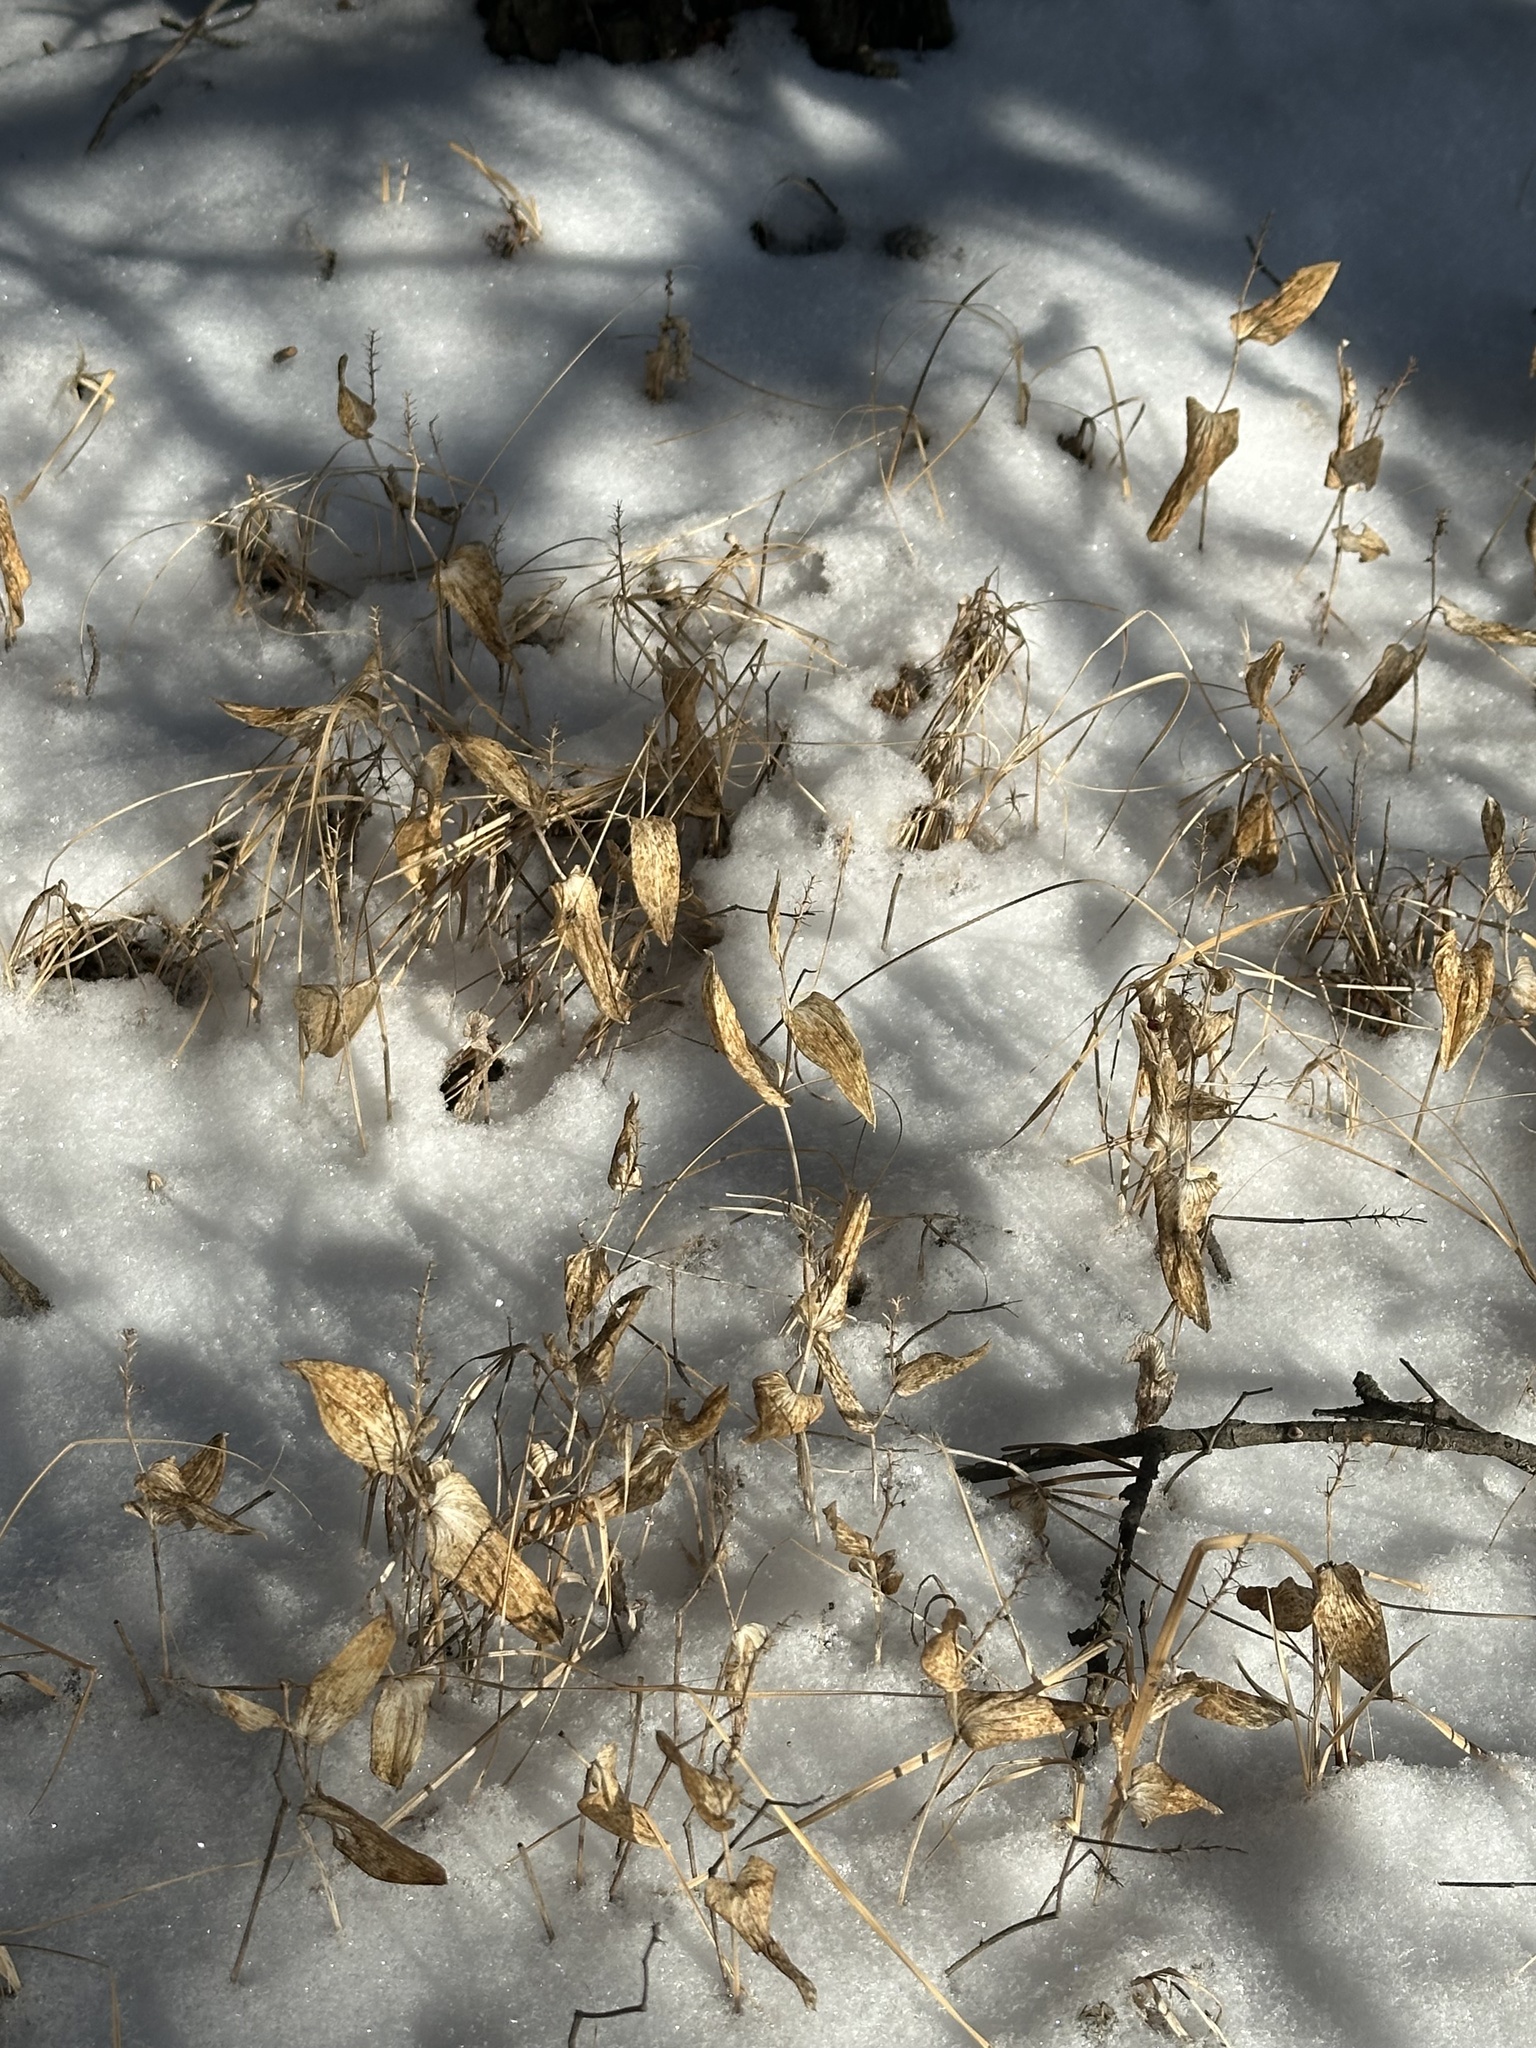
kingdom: Plantae
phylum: Tracheophyta
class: Liliopsida
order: Asparagales
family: Asparagaceae
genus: Maianthemum
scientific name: Maianthemum canadense
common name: False lily-of-the-valley
